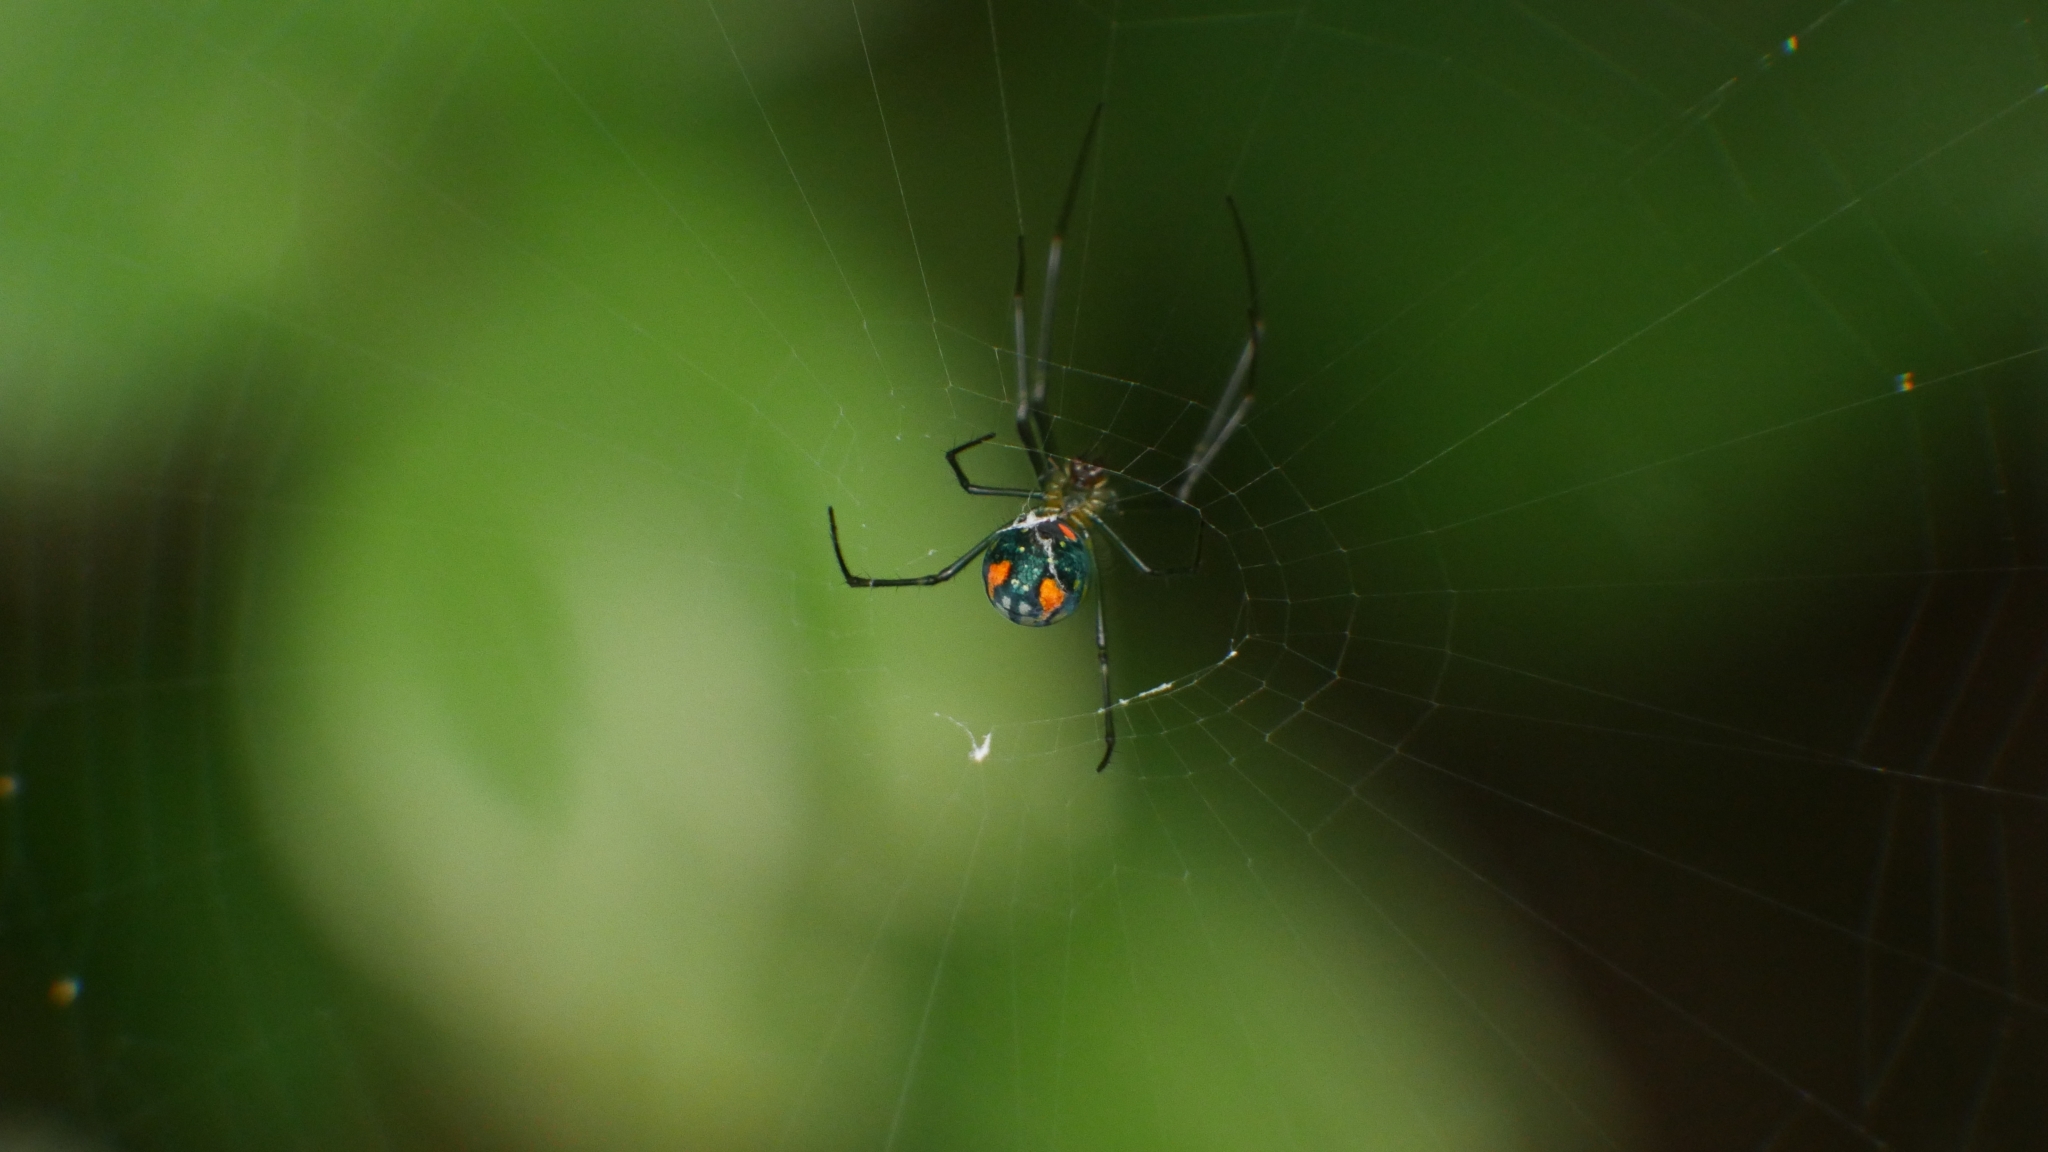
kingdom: Animalia
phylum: Arthropoda
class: Arachnida
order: Araneae
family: Tetragnathidae
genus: Leucauge
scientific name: Leucauge argyrobapta
